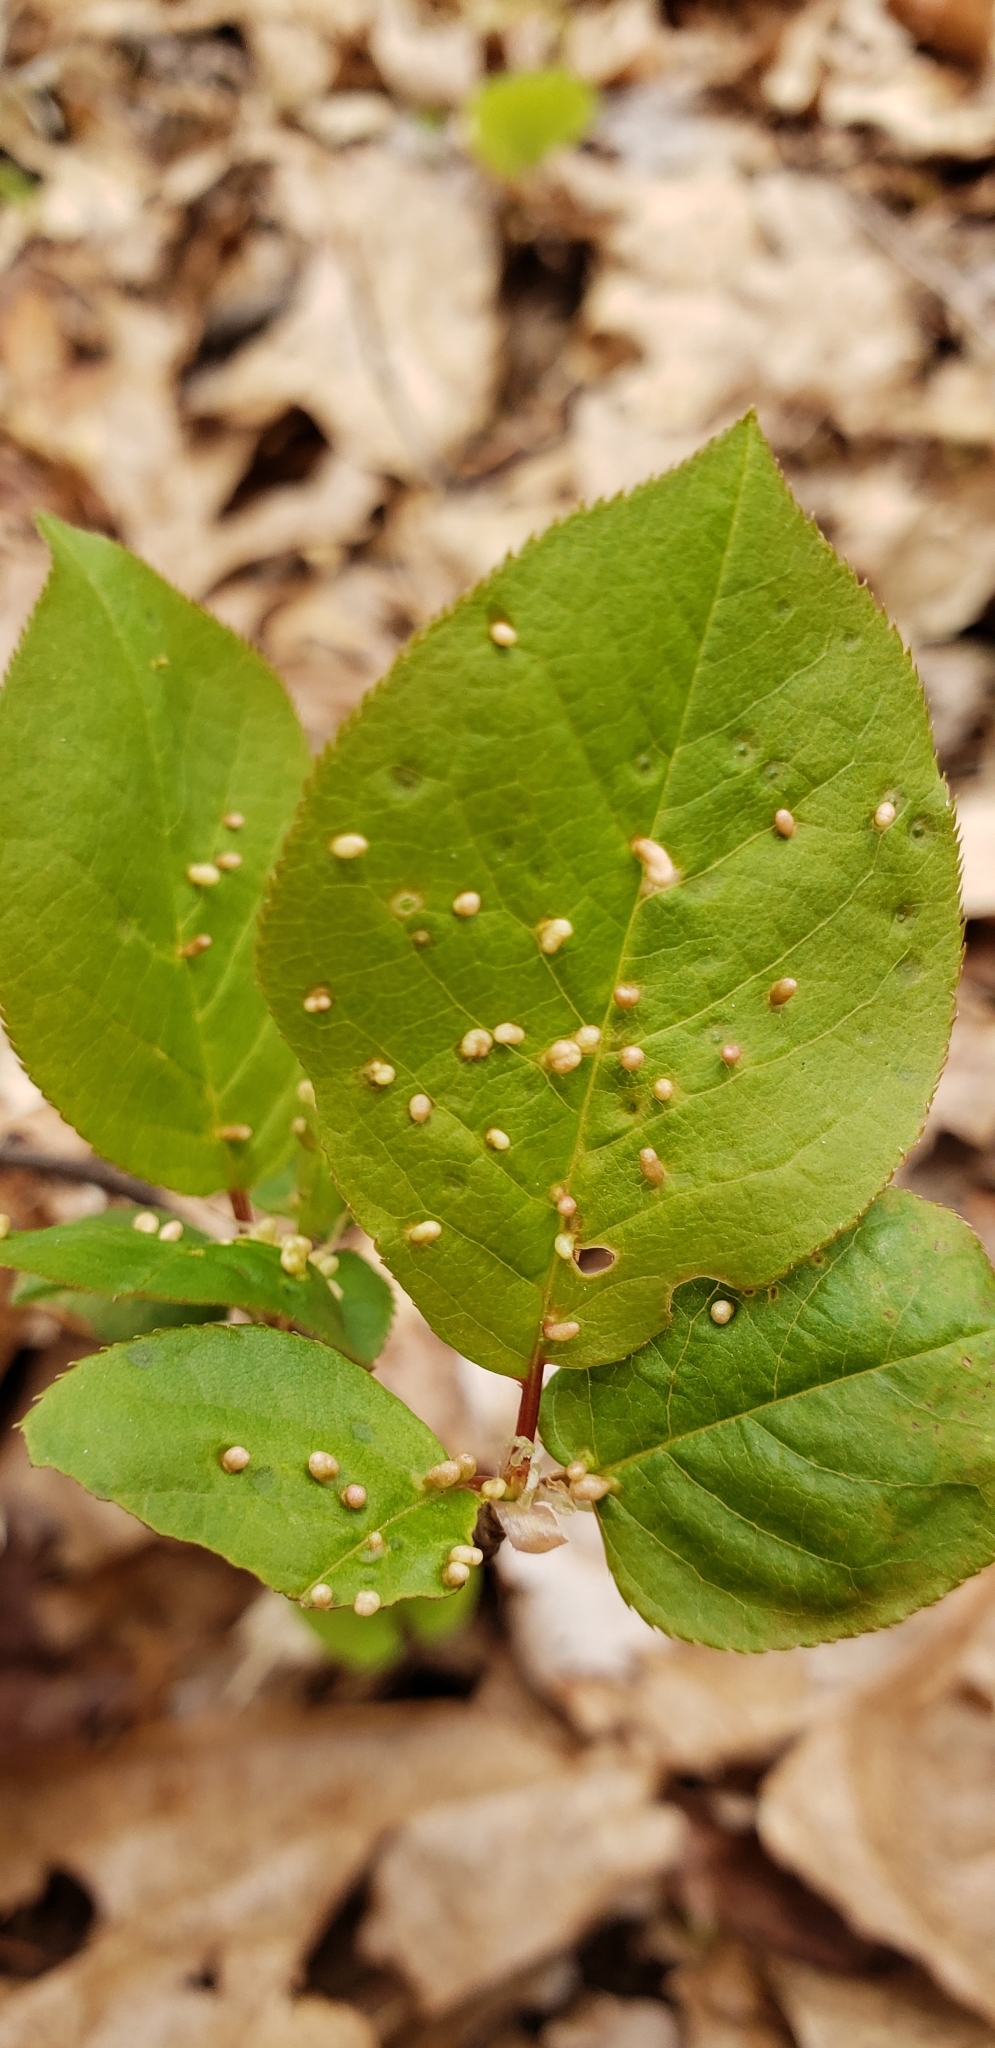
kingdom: Animalia
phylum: Arthropoda
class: Arachnida
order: Trombidiformes
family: Eriophyidae
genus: Eriophyes
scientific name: Eriophyes emarginatae
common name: Plum leaf gall mite
